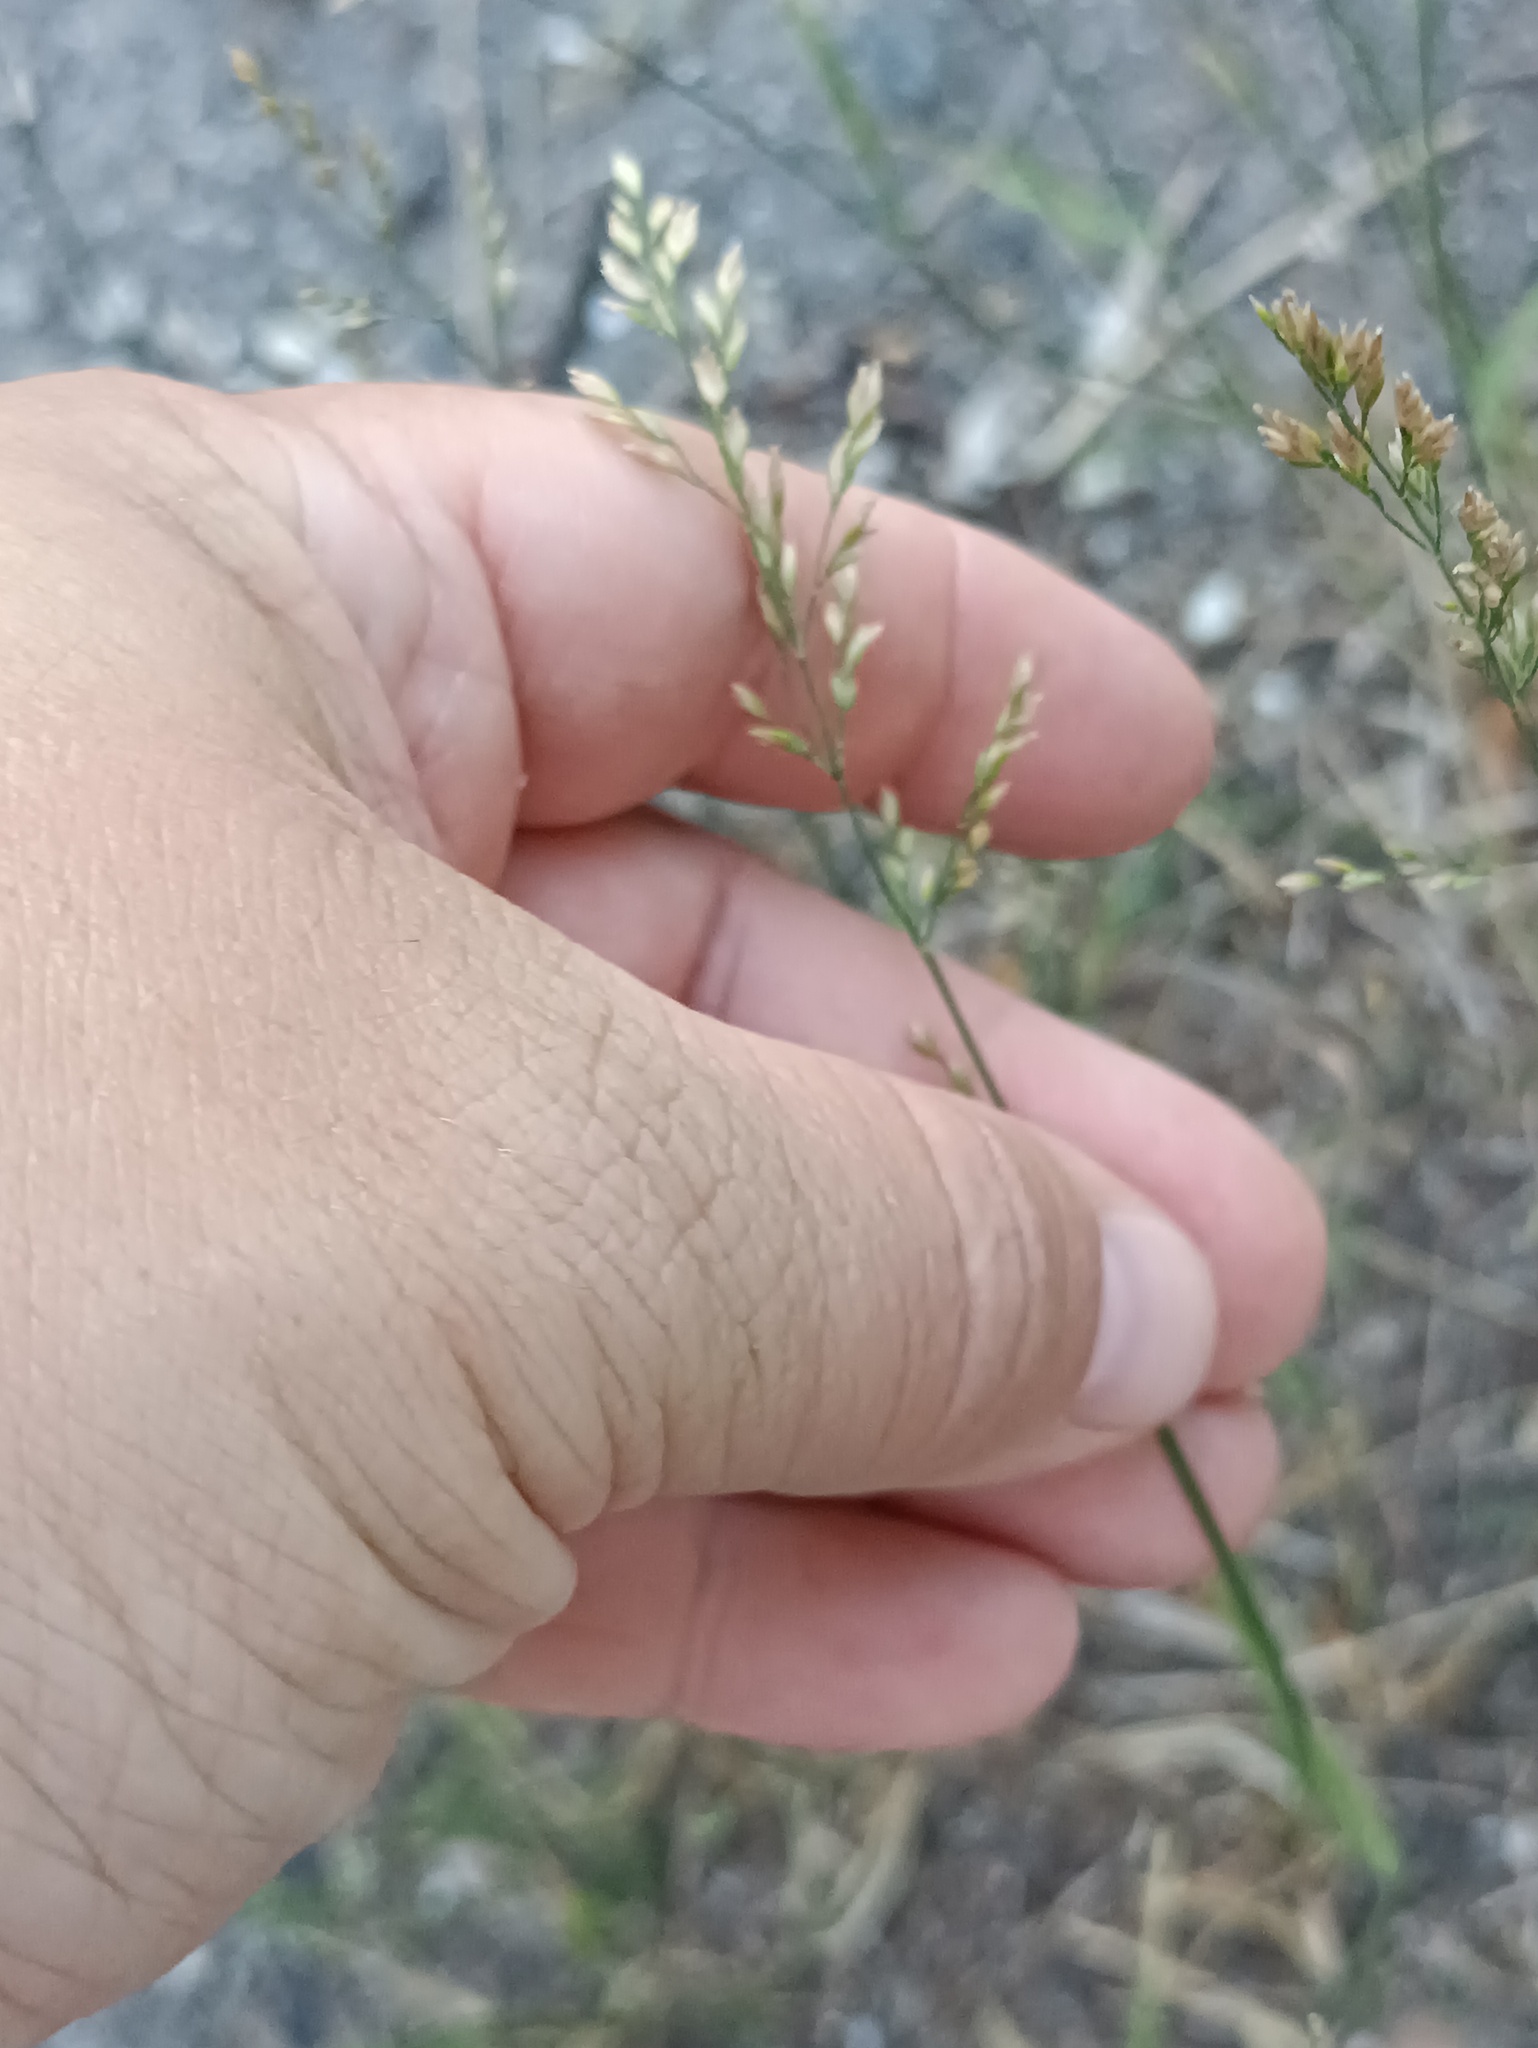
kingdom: Plantae
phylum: Tracheophyta
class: Liliopsida
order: Poales
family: Poaceae
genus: Poa
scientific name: Poa compressa
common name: Canada bluegrass
